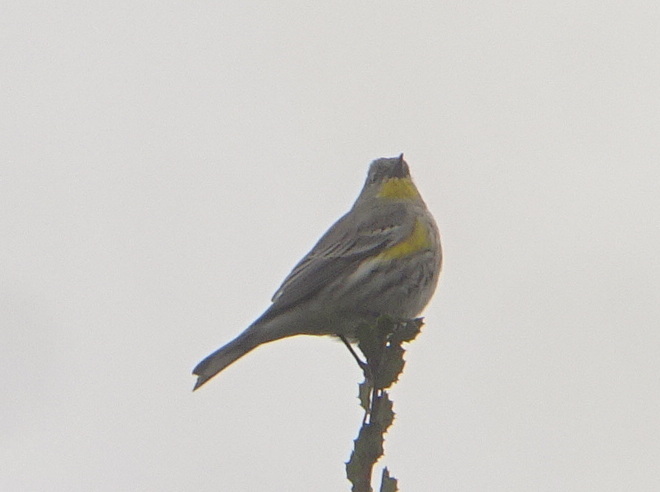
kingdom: Animalia
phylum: Chordata
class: Aves
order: Passeriformes
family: Parulidae
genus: Setophaga
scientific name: Setophaga coronata
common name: Myrtle warbler
